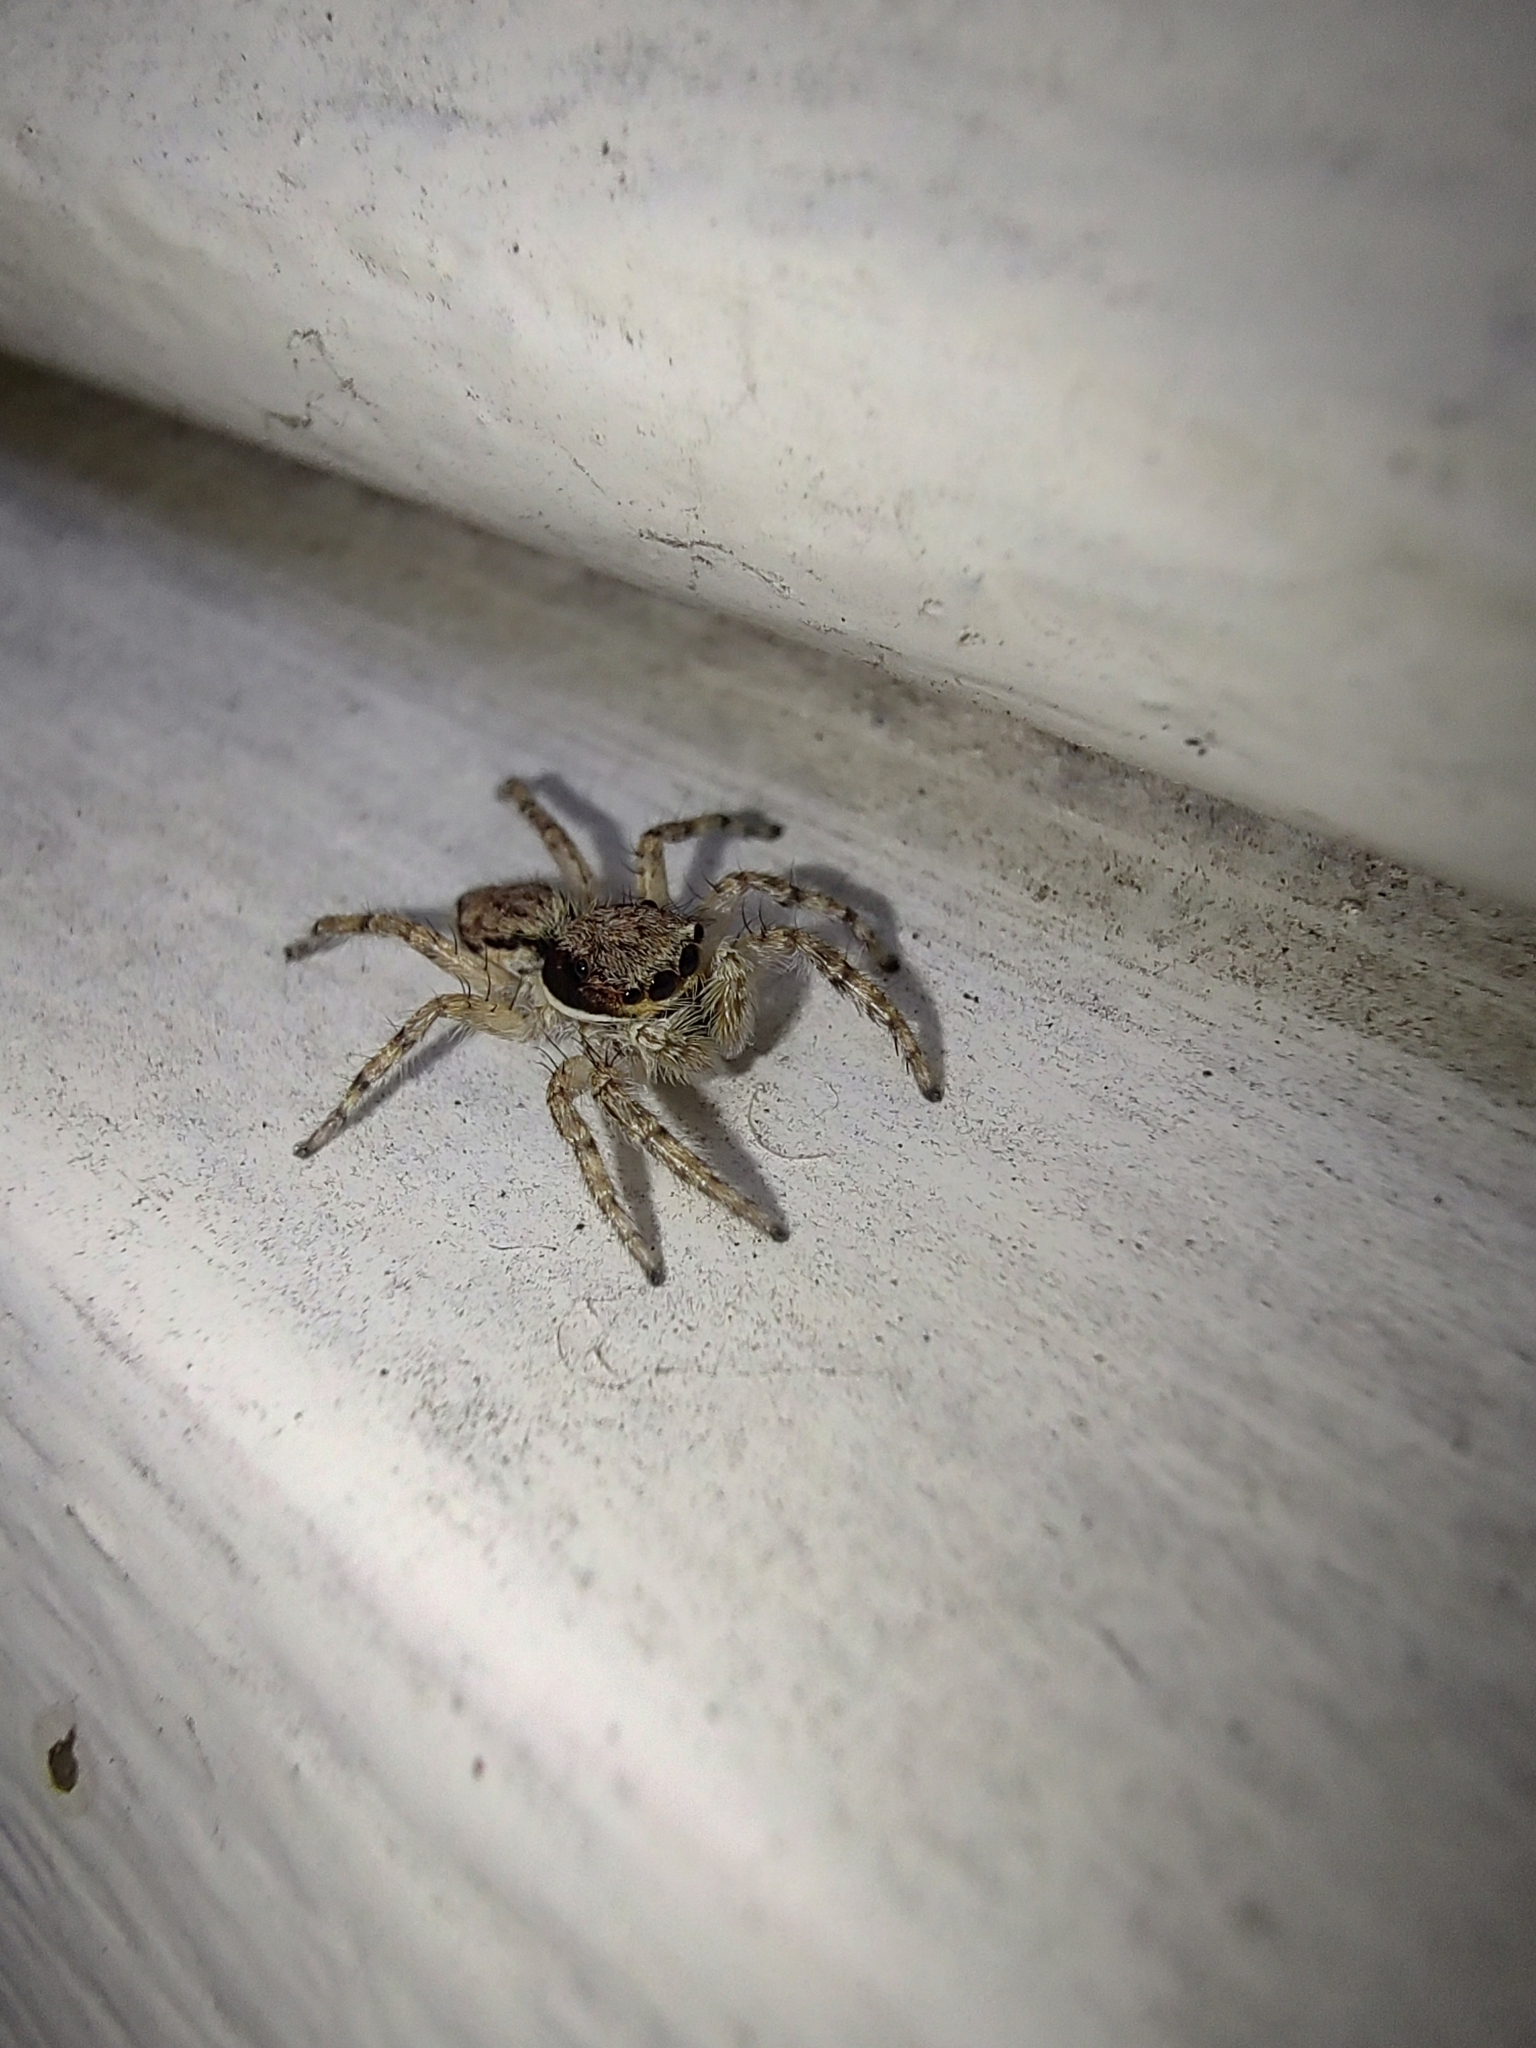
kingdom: Animalia
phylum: Arthropoda
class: Arachnida
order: Araneae
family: Salticidae
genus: Menemerus
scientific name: Menemerus bivittatus
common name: Gray wall jumper
